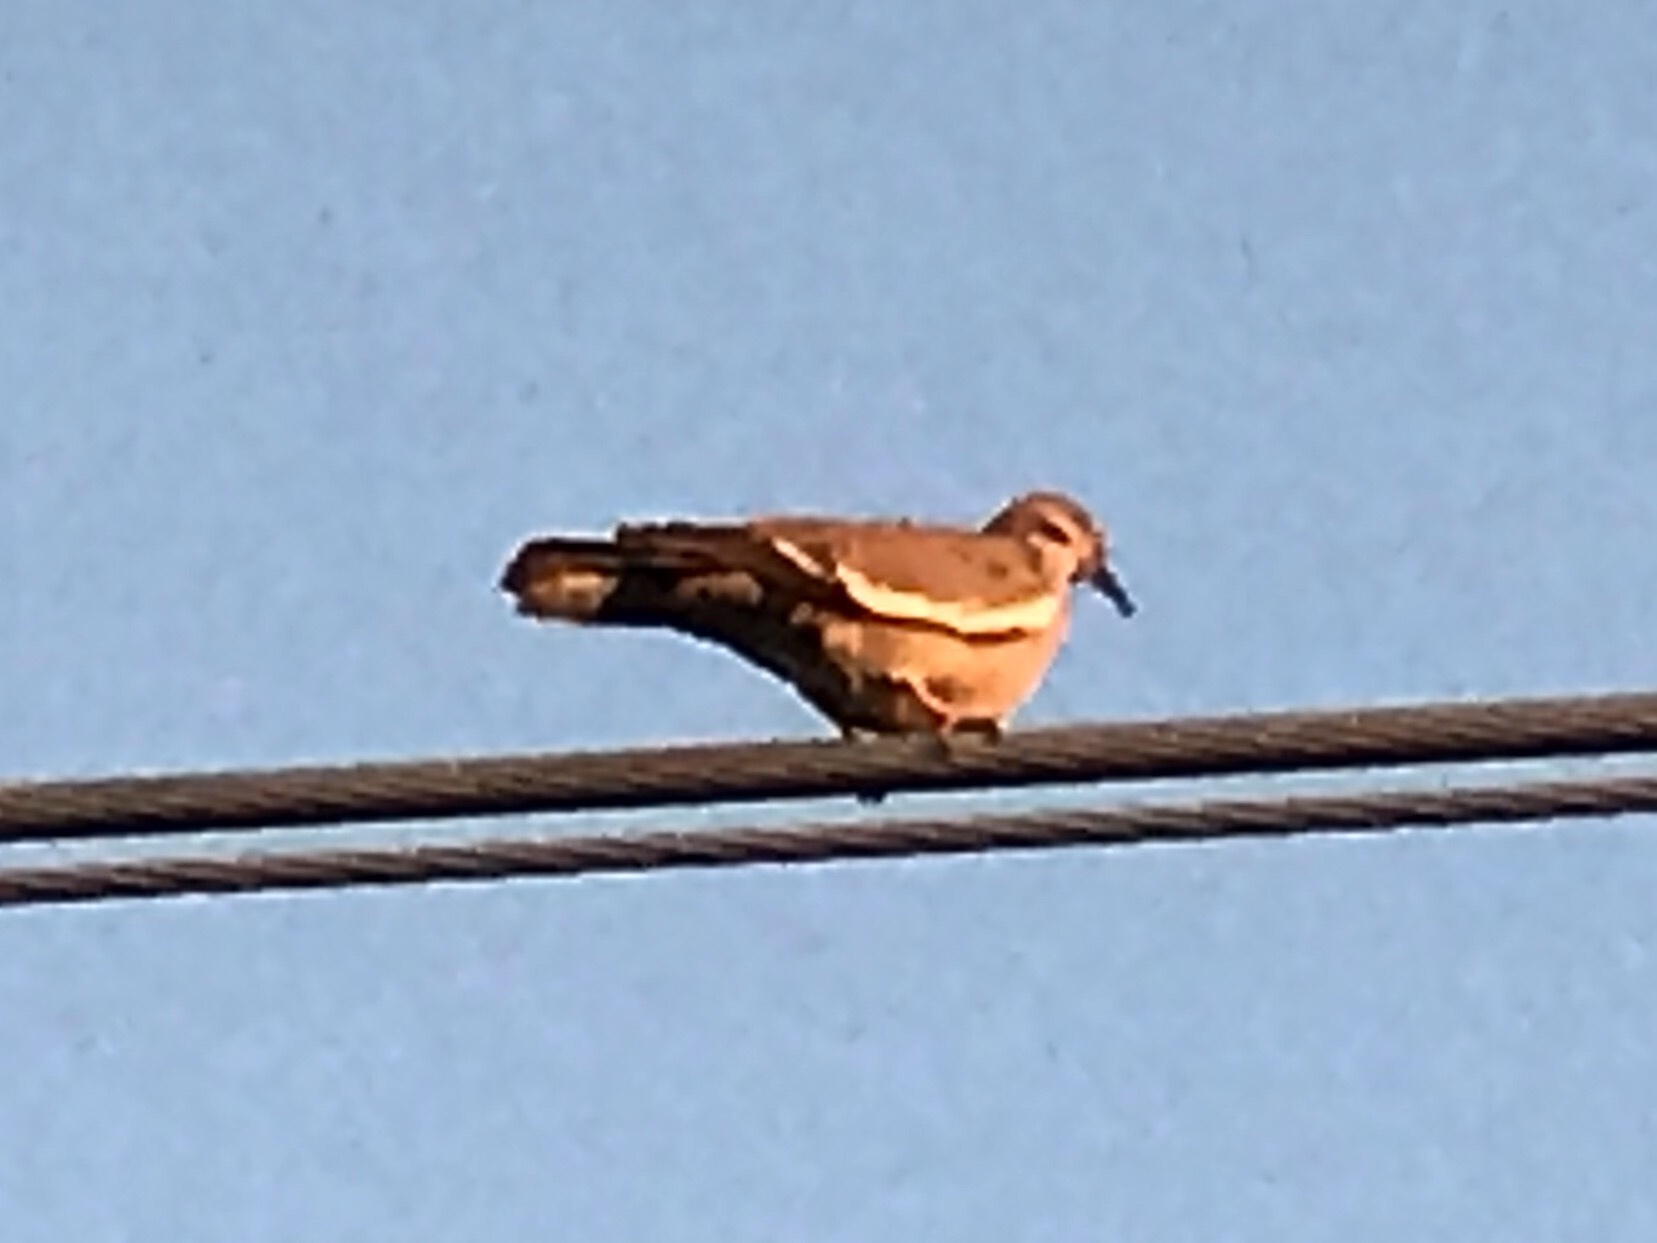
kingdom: Animalia
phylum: Chordata
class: Aves
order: Columbiformes
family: Columbidae
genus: Zenaida
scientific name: Zenaida asiatica
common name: White-winged dove
